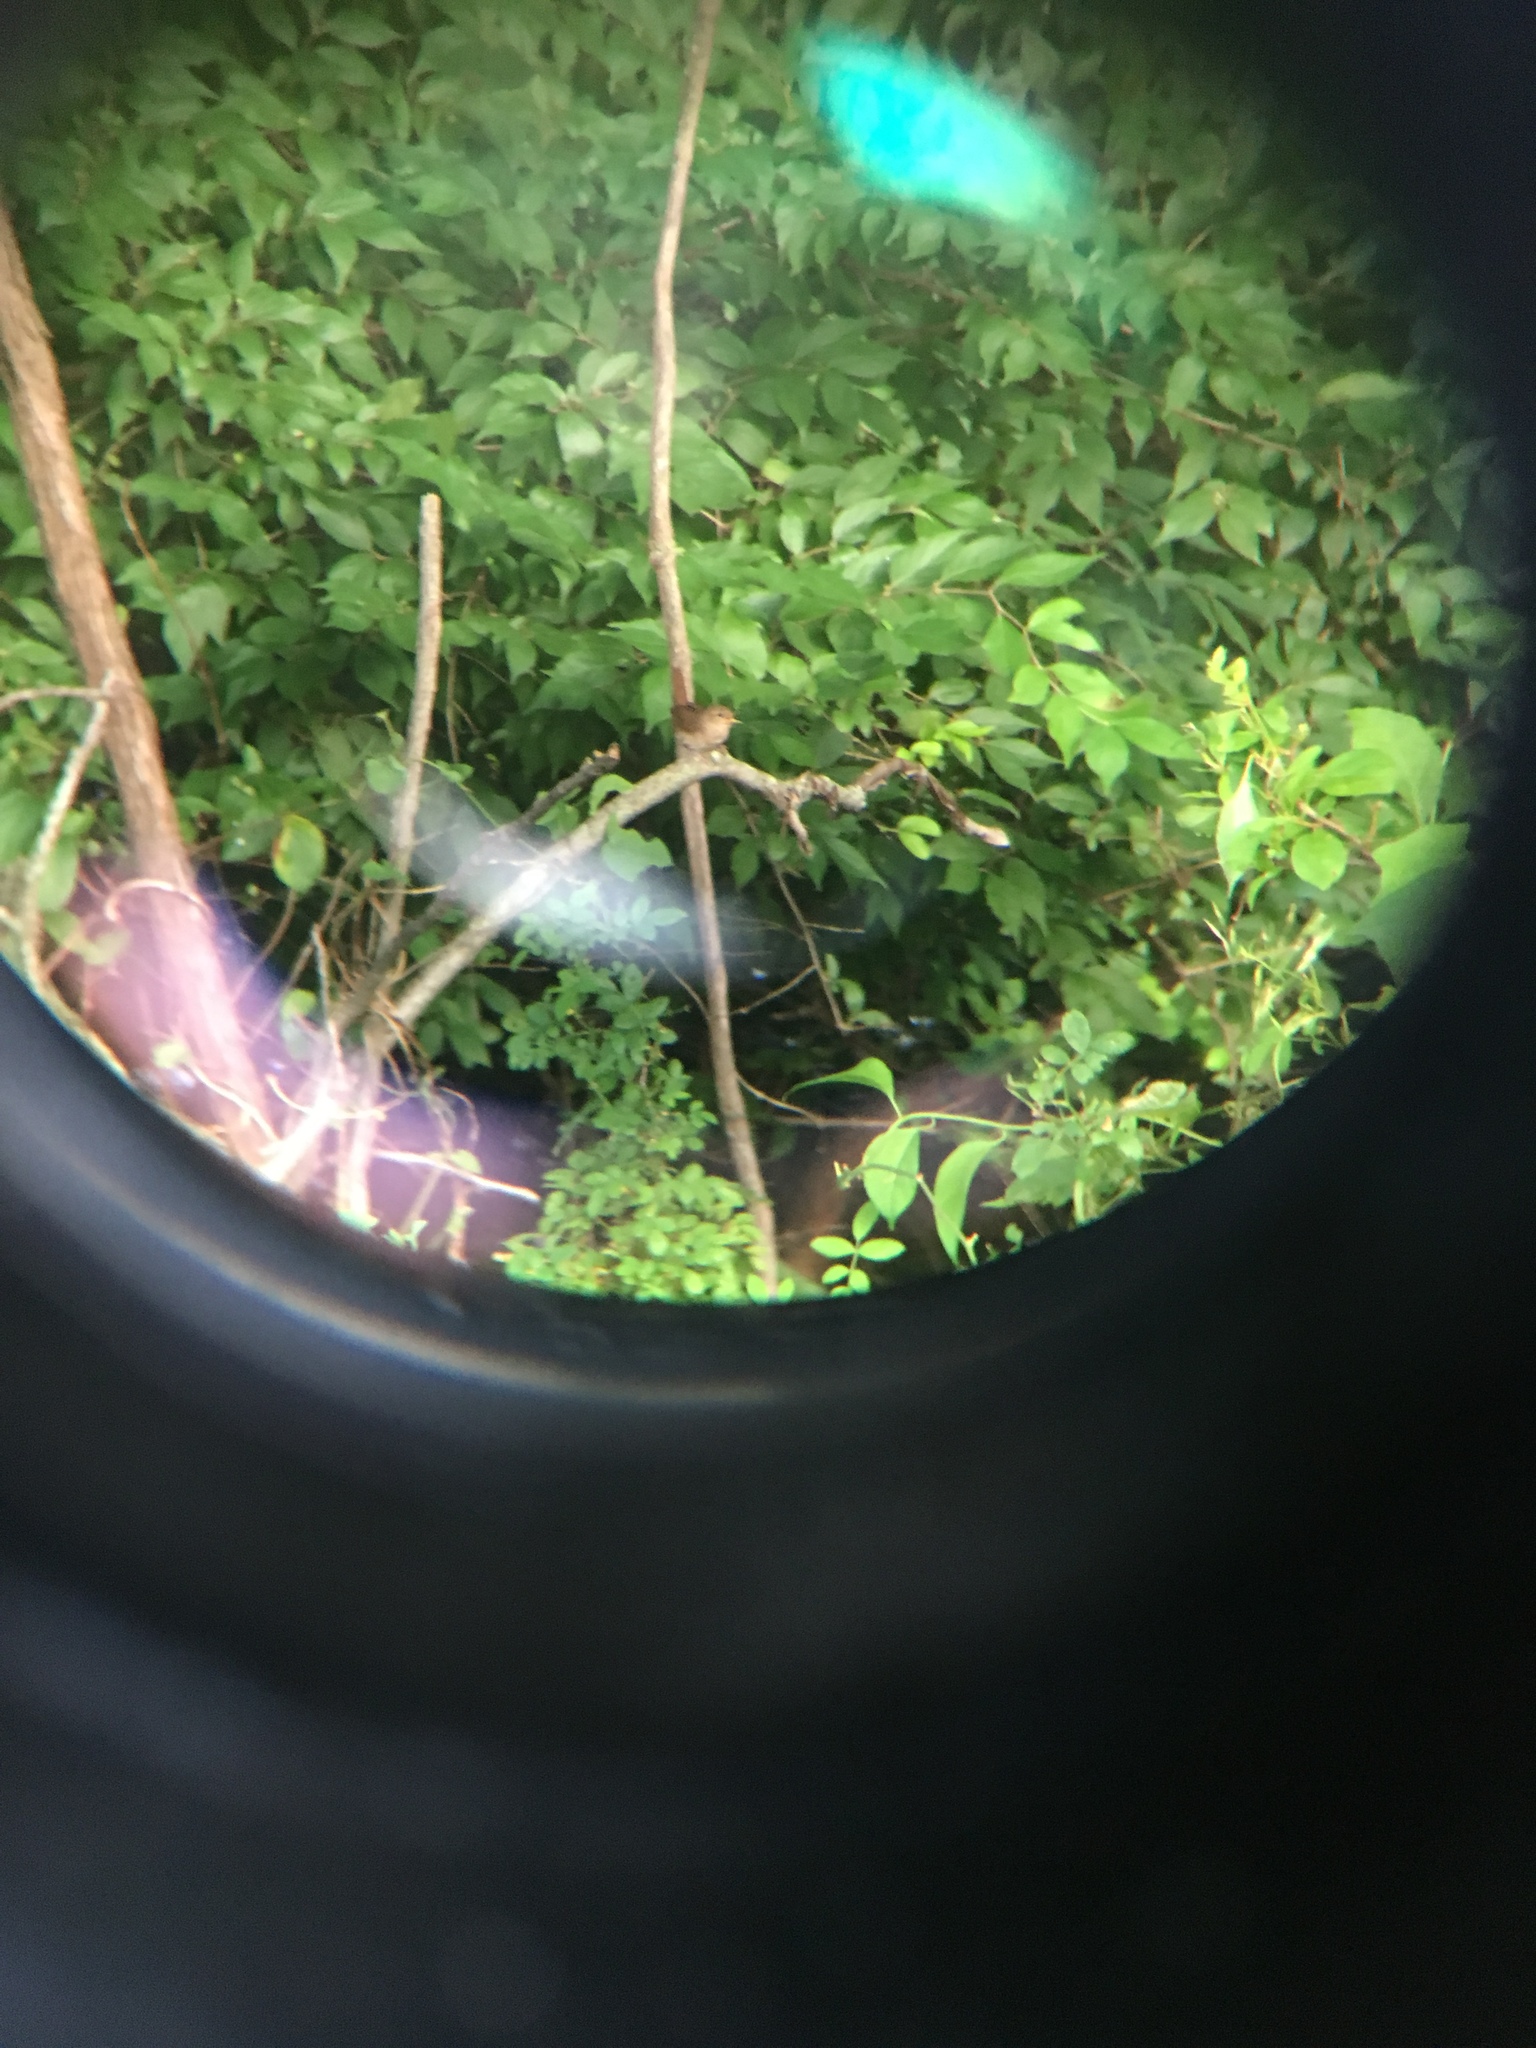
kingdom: Animalia
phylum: Chordata
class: Aves
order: Passeriformes
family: Troglodytidae
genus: Troglodytes
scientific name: Troglodytes aedon
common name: House wren
